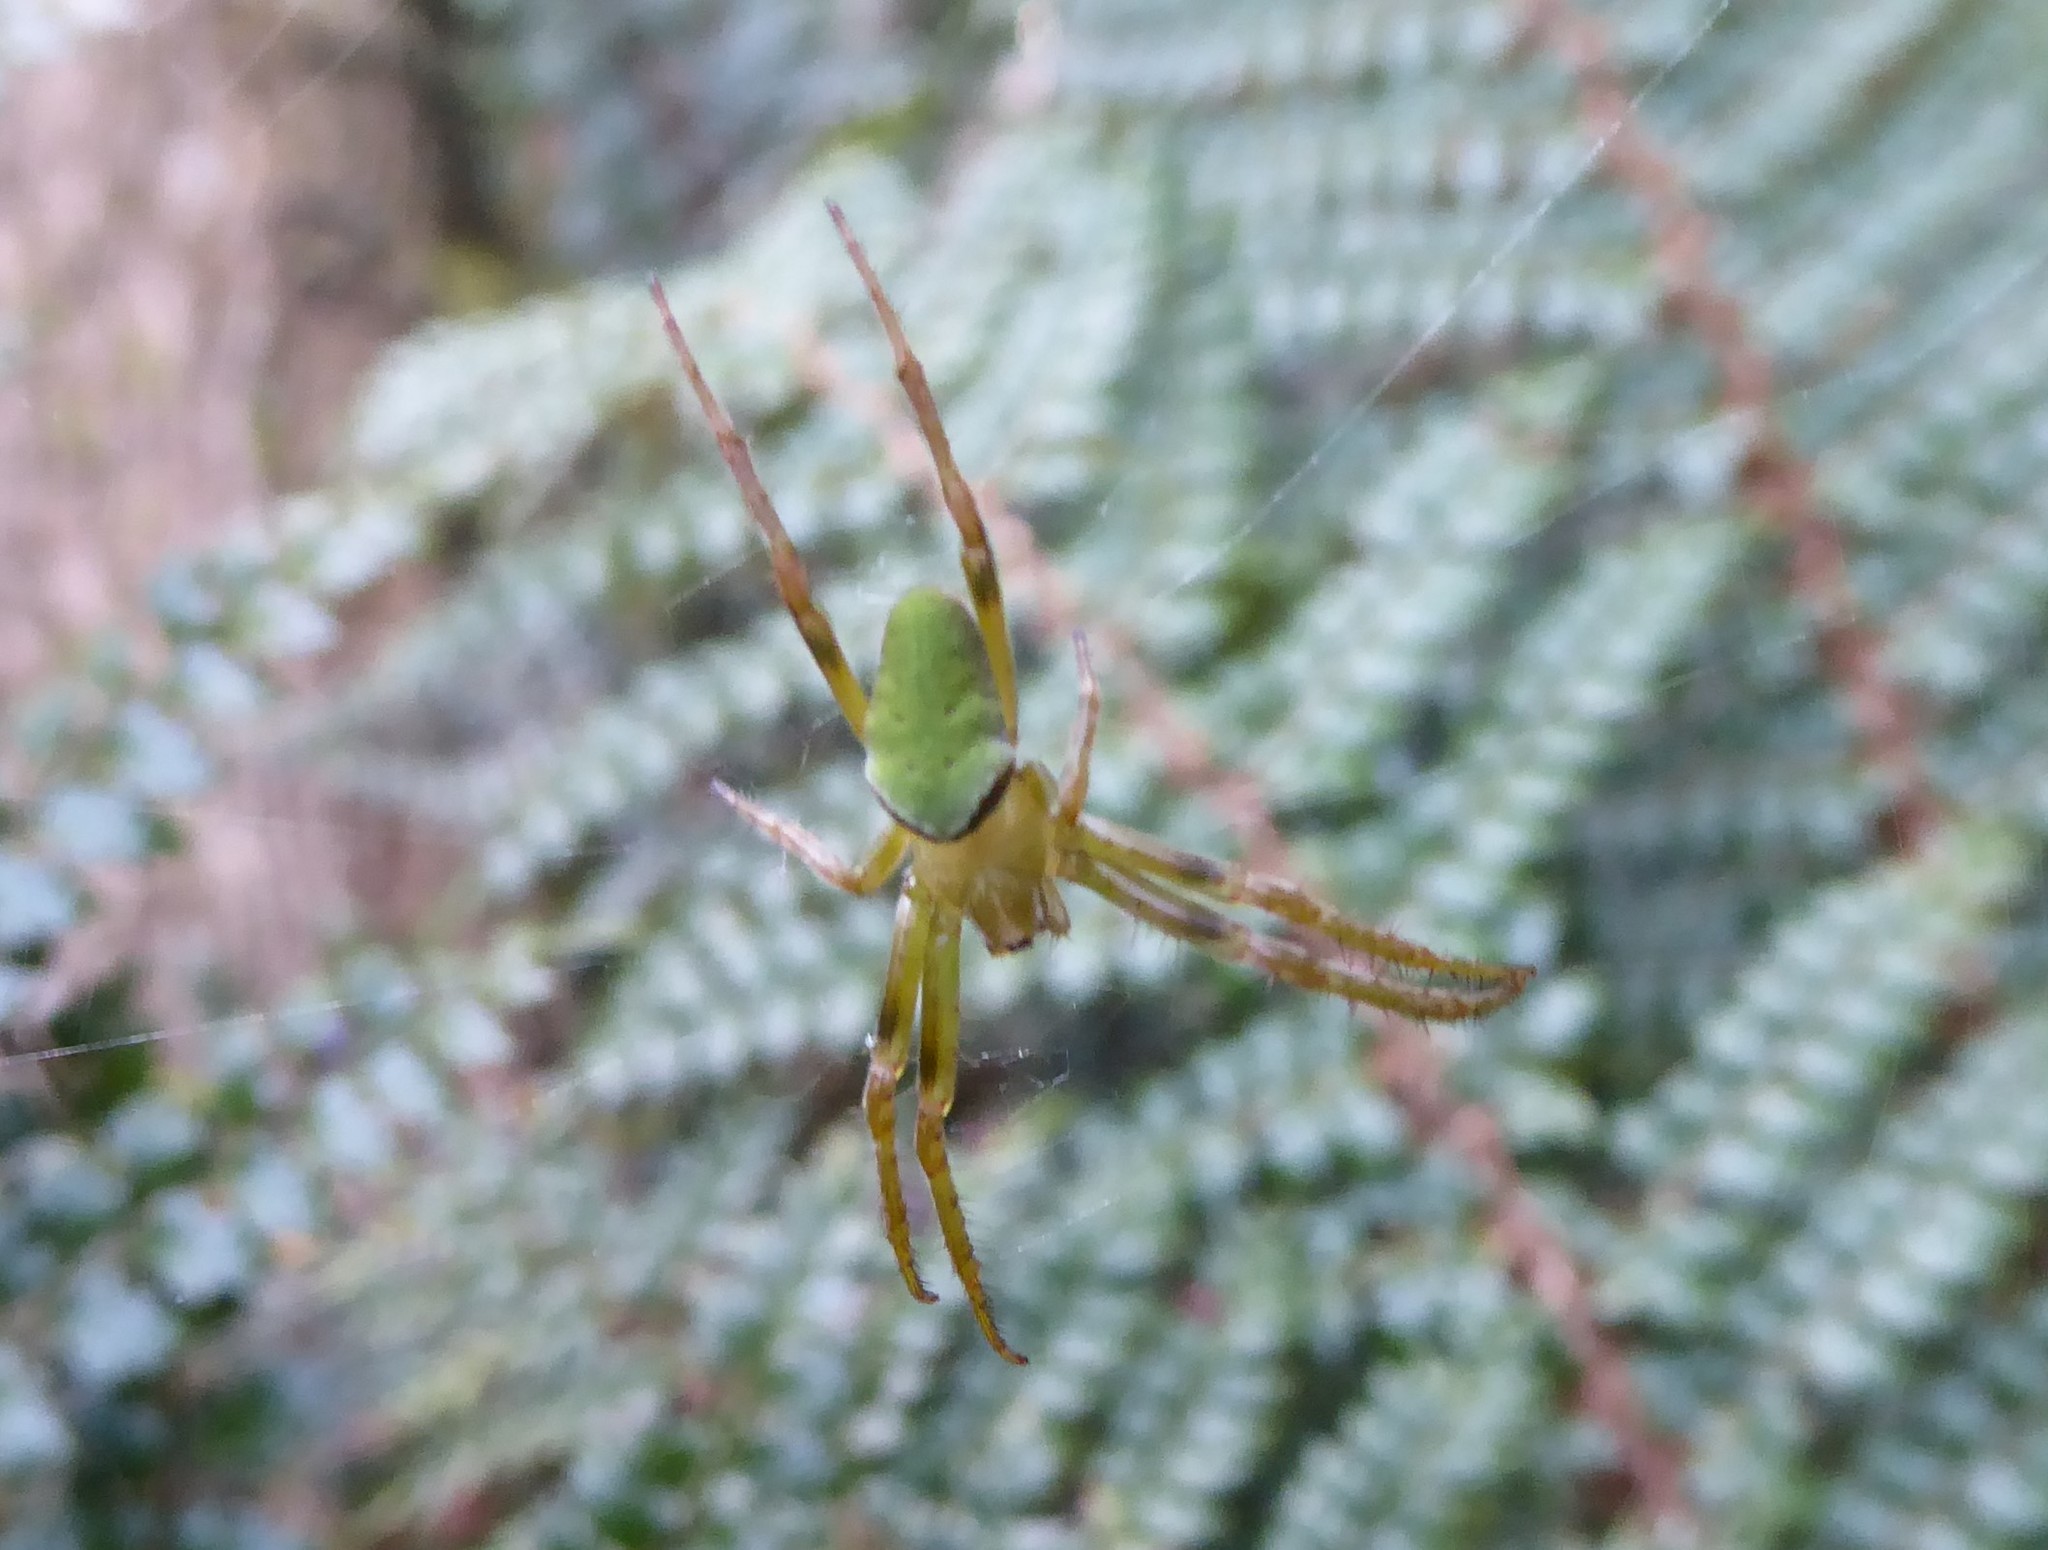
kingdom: Animalia
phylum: Arthropoda
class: Arachnida
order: Araneae
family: Araneidae
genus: Colaranea
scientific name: Colaranea viriditas
